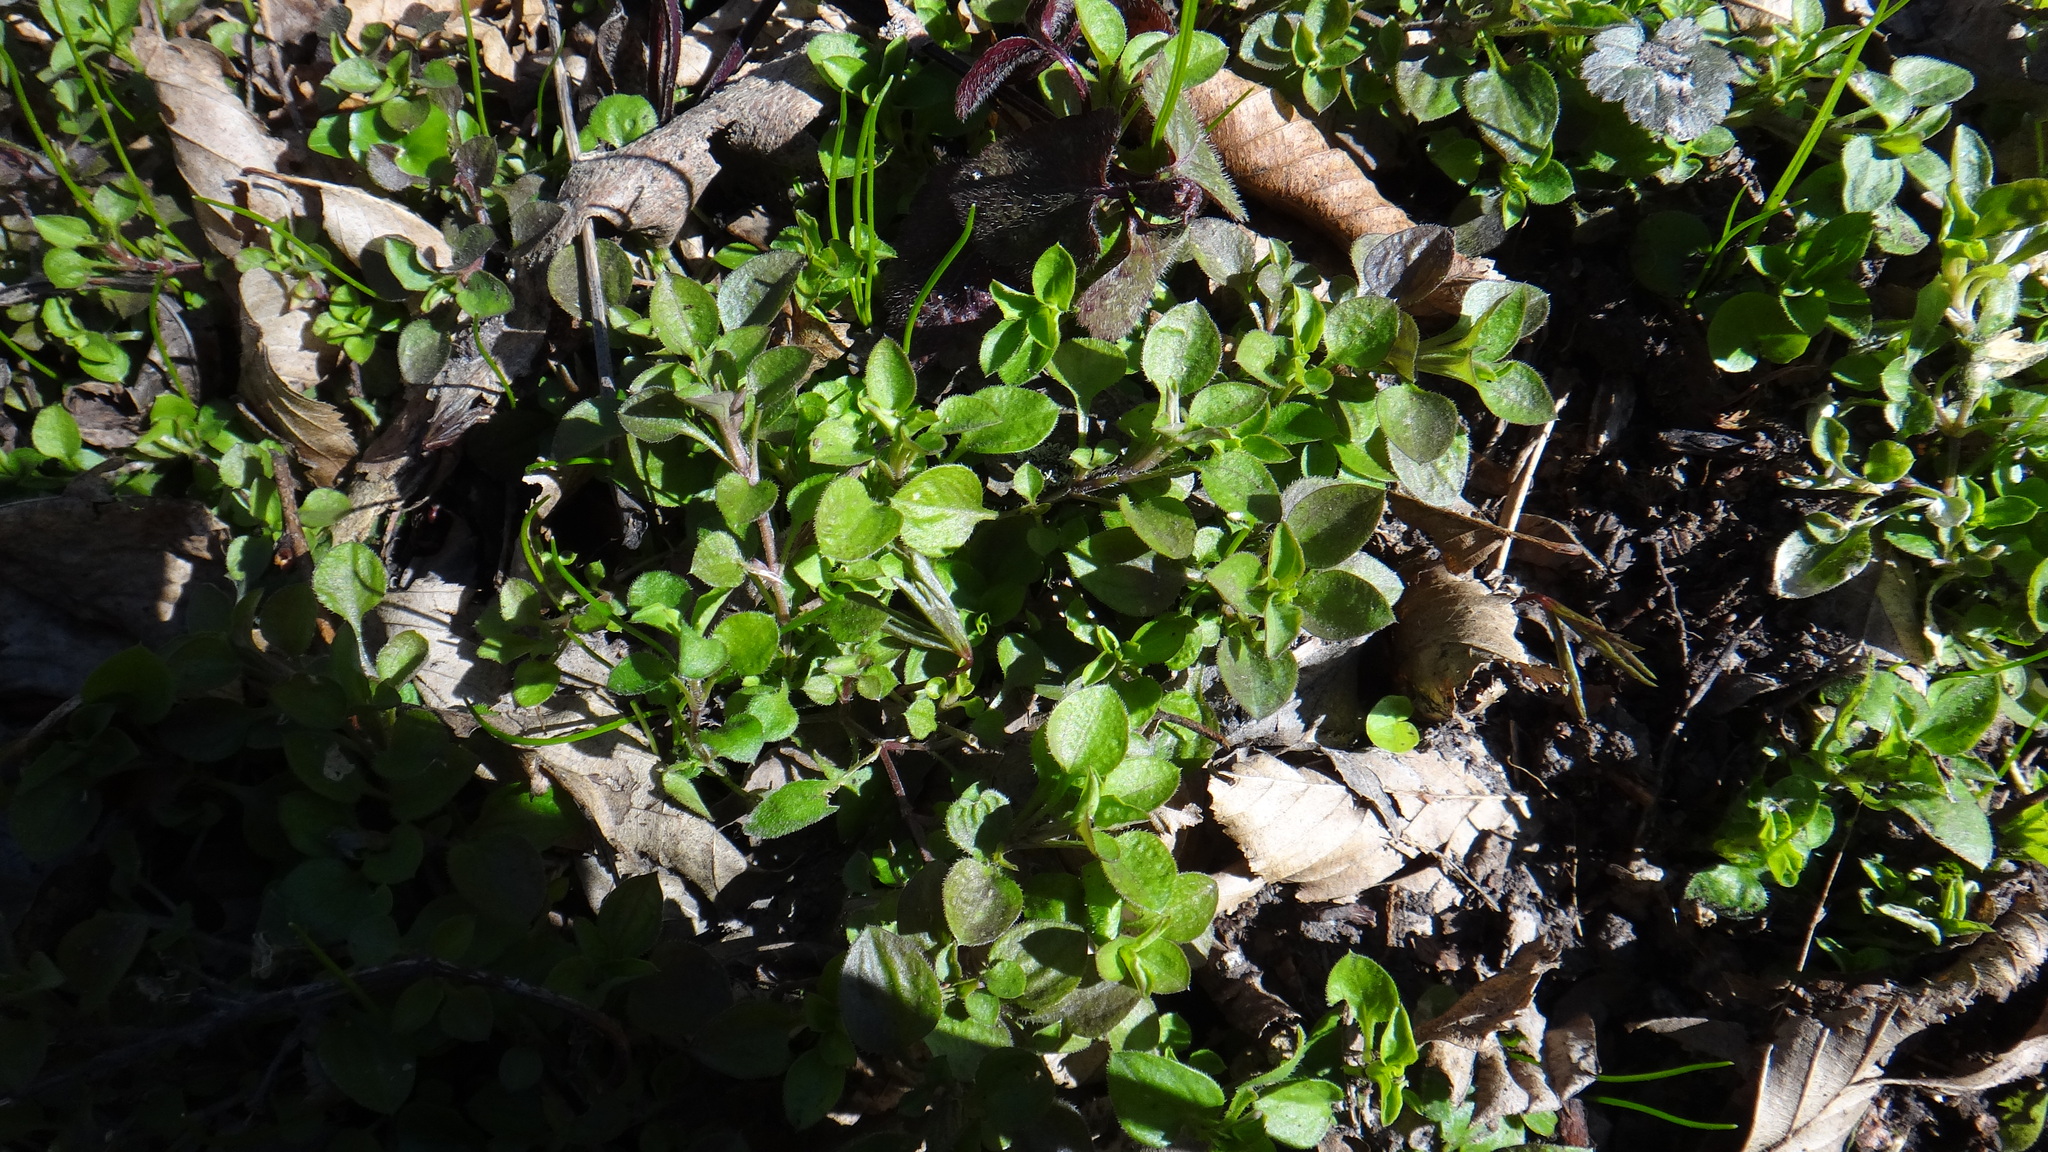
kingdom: Plantae
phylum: Tracheophyta
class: Magnoliopsida
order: Caryophyllales
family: Caryophyllaceae
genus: Moehringia
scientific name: Moehringia trinervia
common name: Three-nerved sandwort
